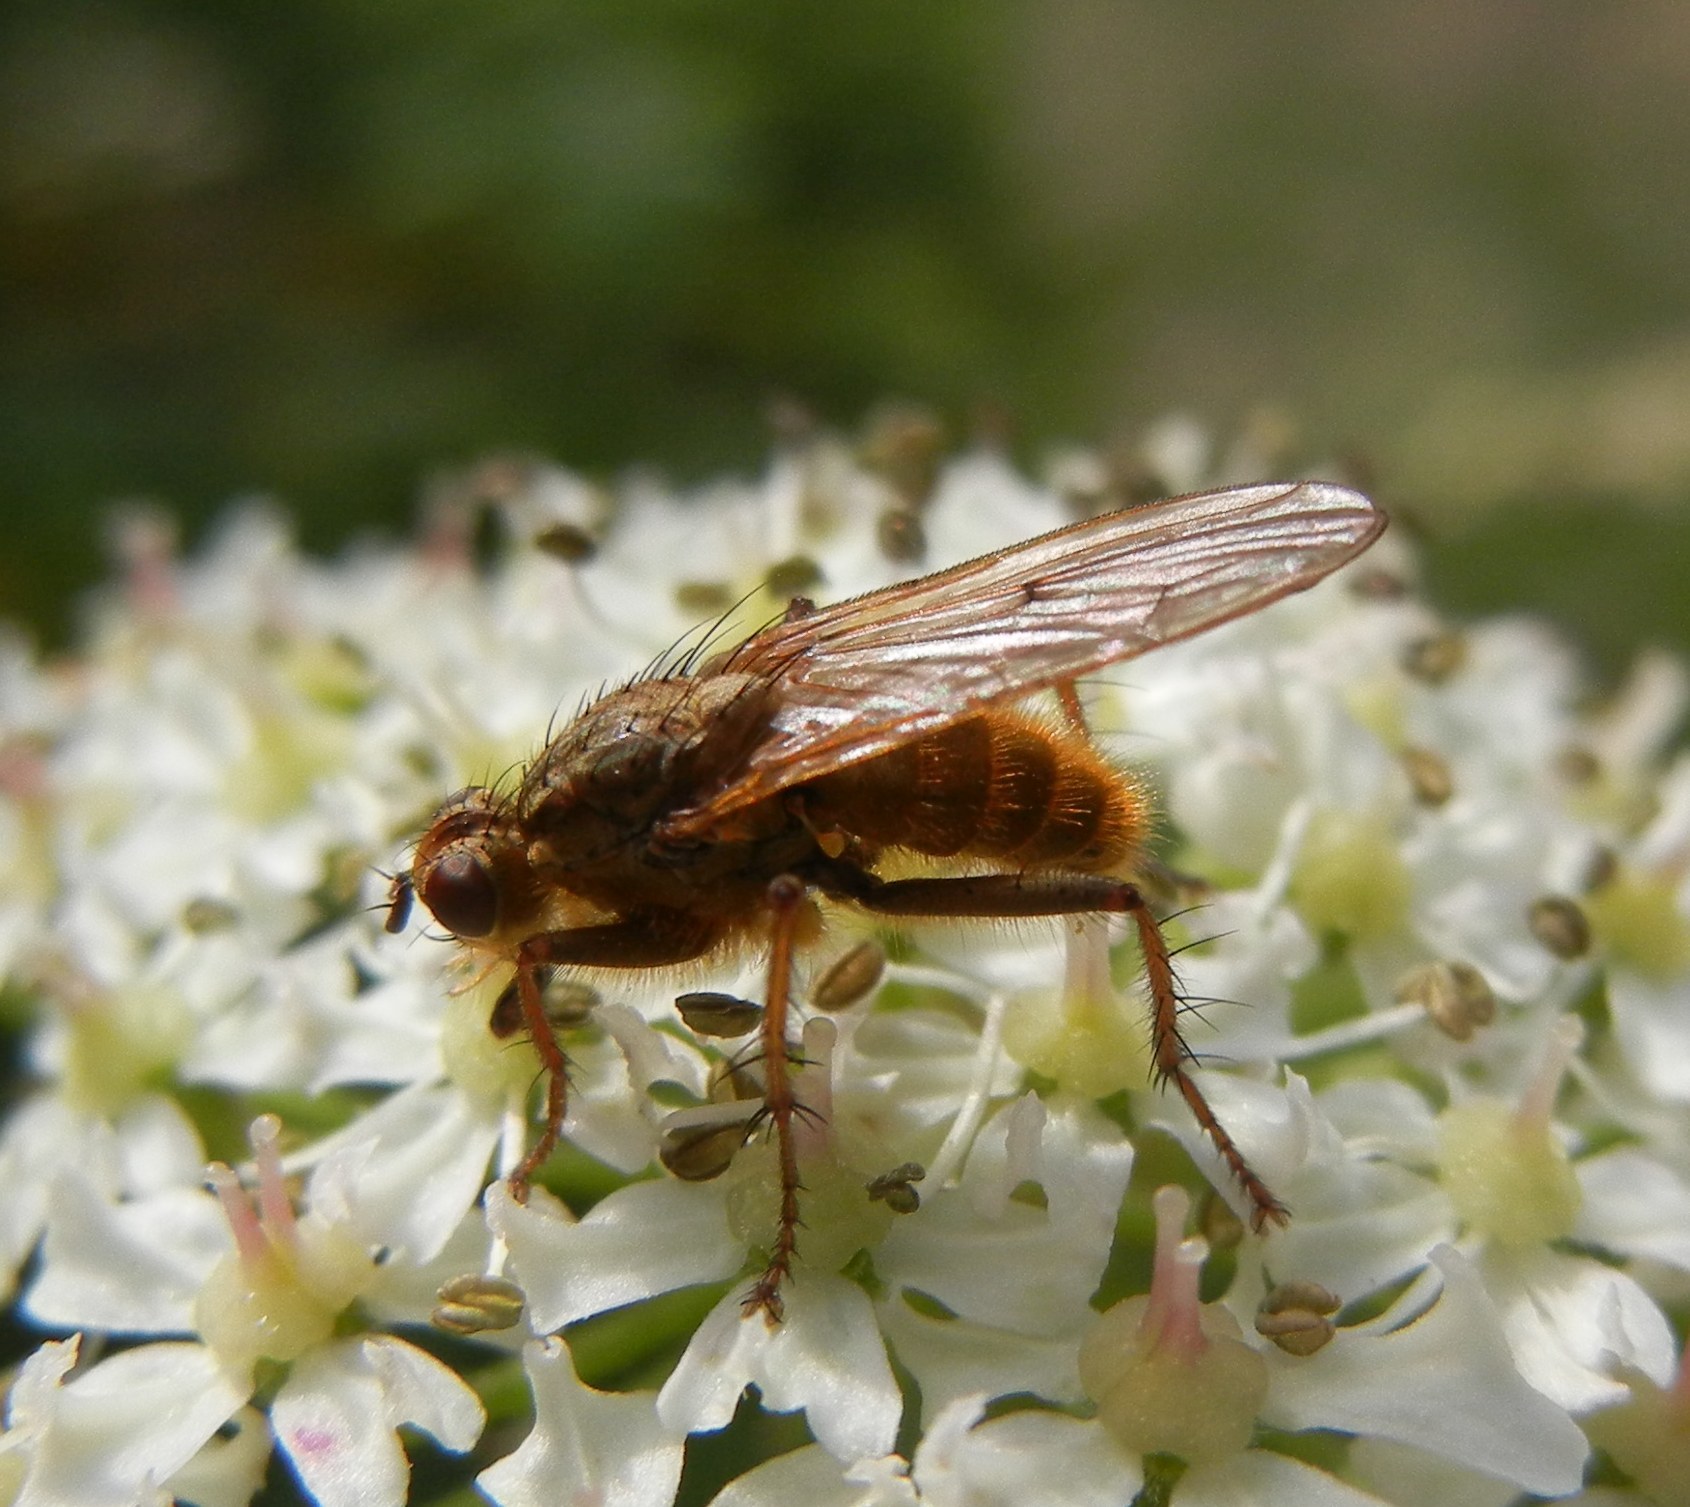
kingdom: Animalia
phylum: Arthropoda
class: Insecta
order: Diptera
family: Scathophagidae
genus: Scathophaga
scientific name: Scathophaga stercoraria
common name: Yellow dung fly
